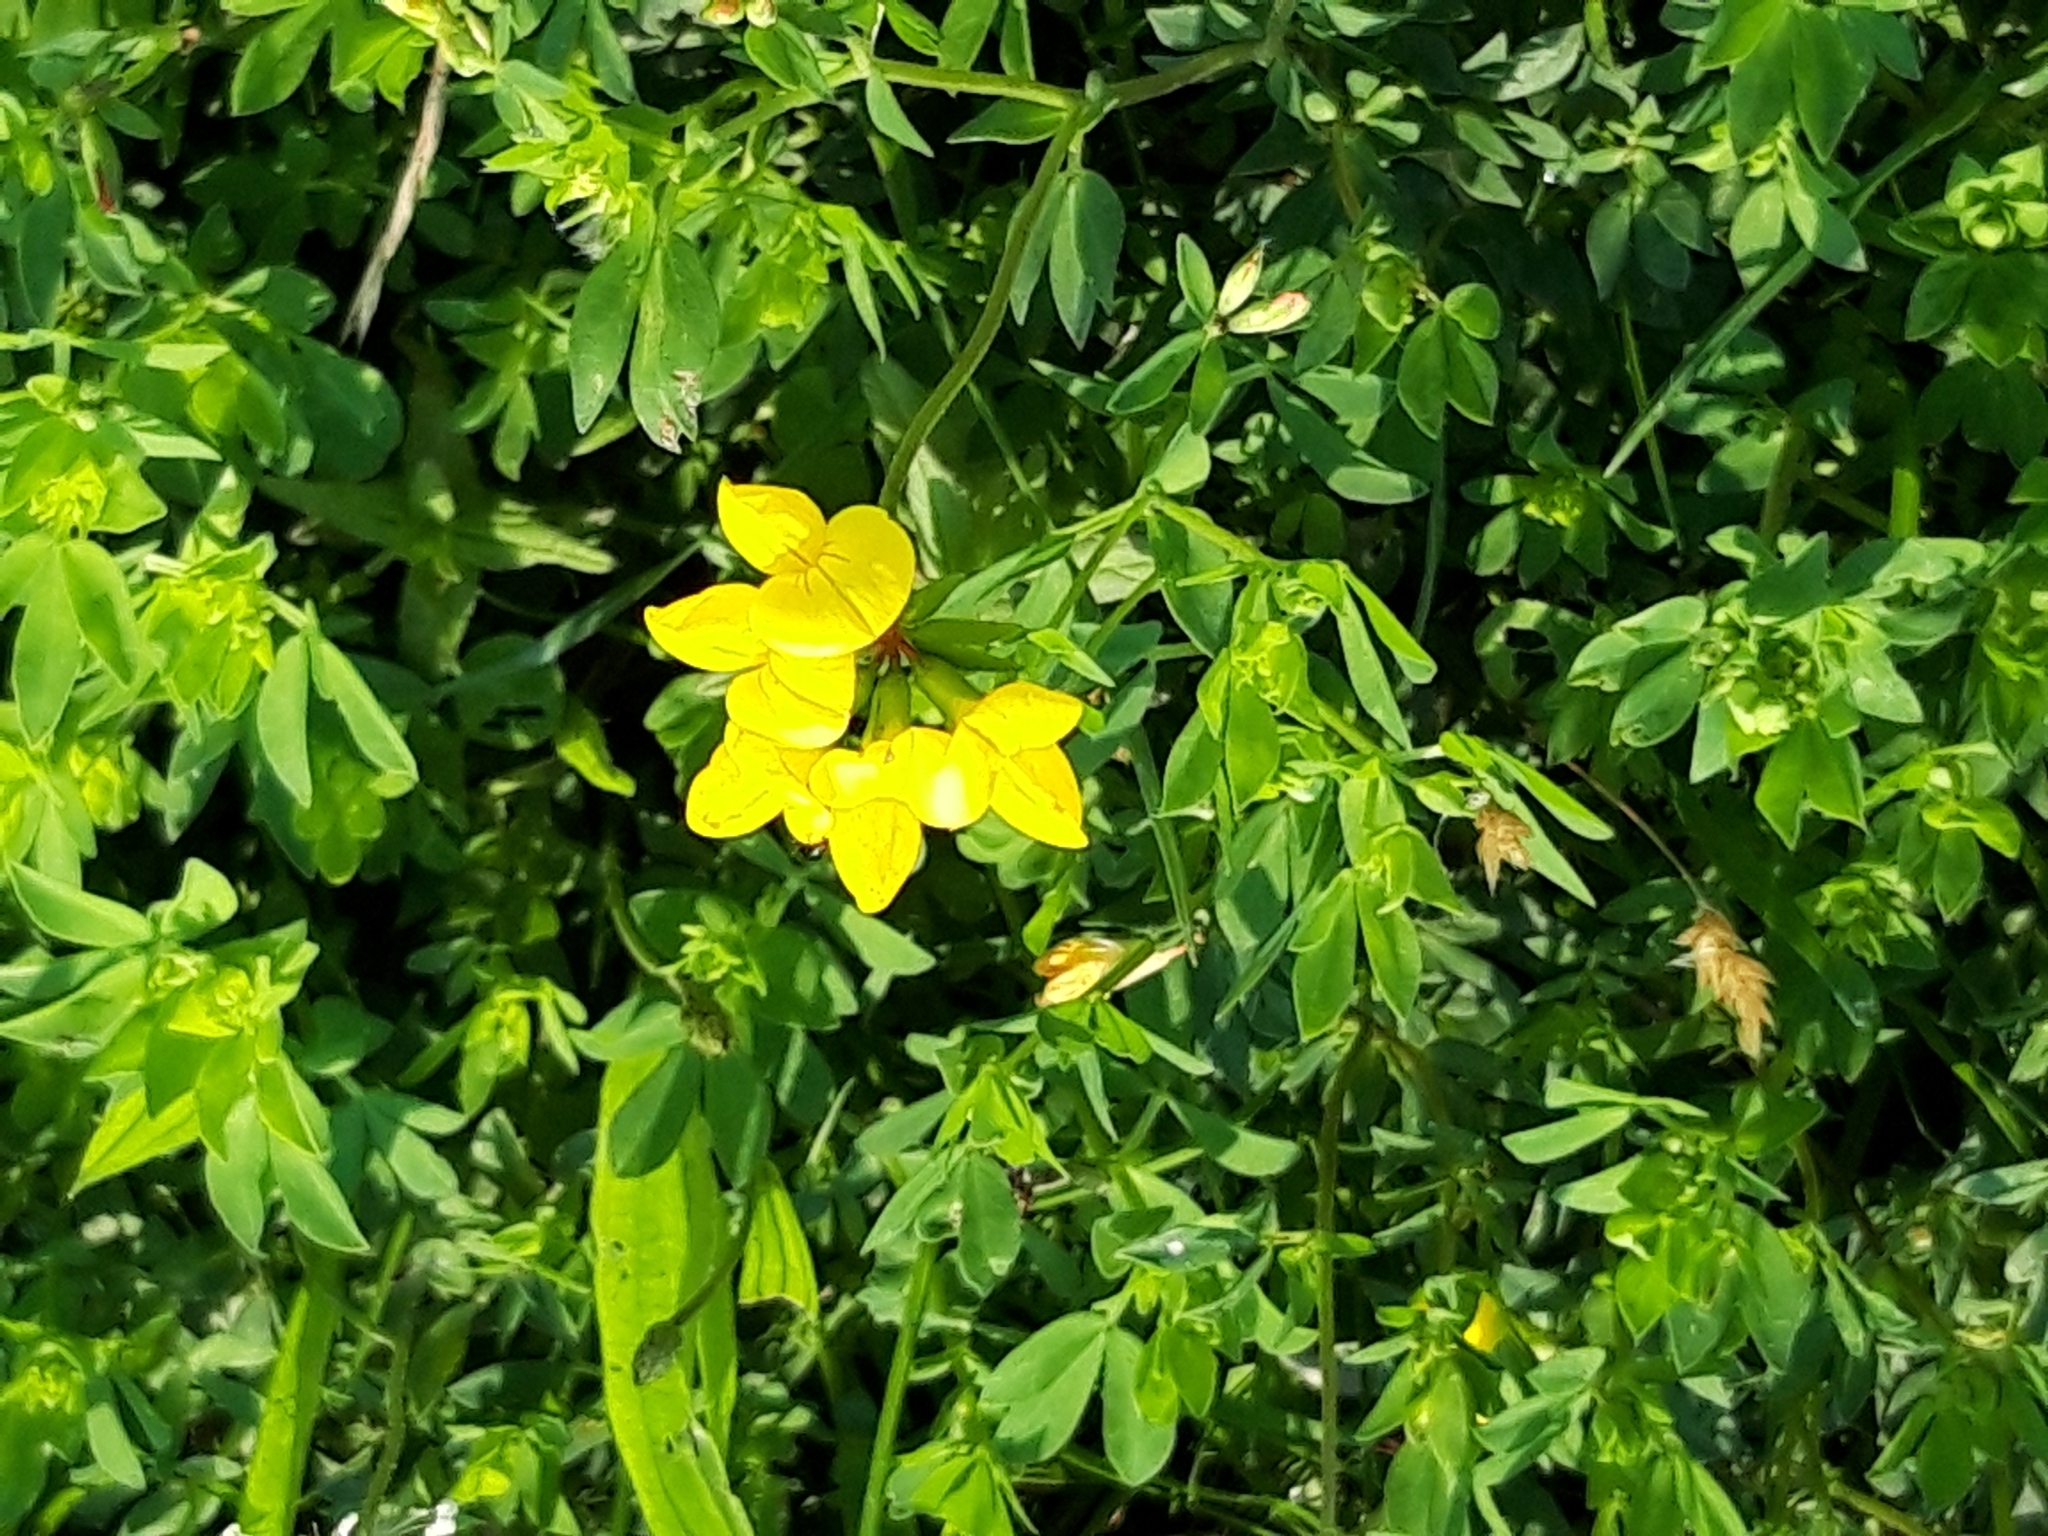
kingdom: Plantae
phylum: Tracheophyta
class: Magnoliopsida
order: Fabales
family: Fabaceae
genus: Lotus
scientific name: Lotus corniculatus
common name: Common bird's-foot-trefoil
